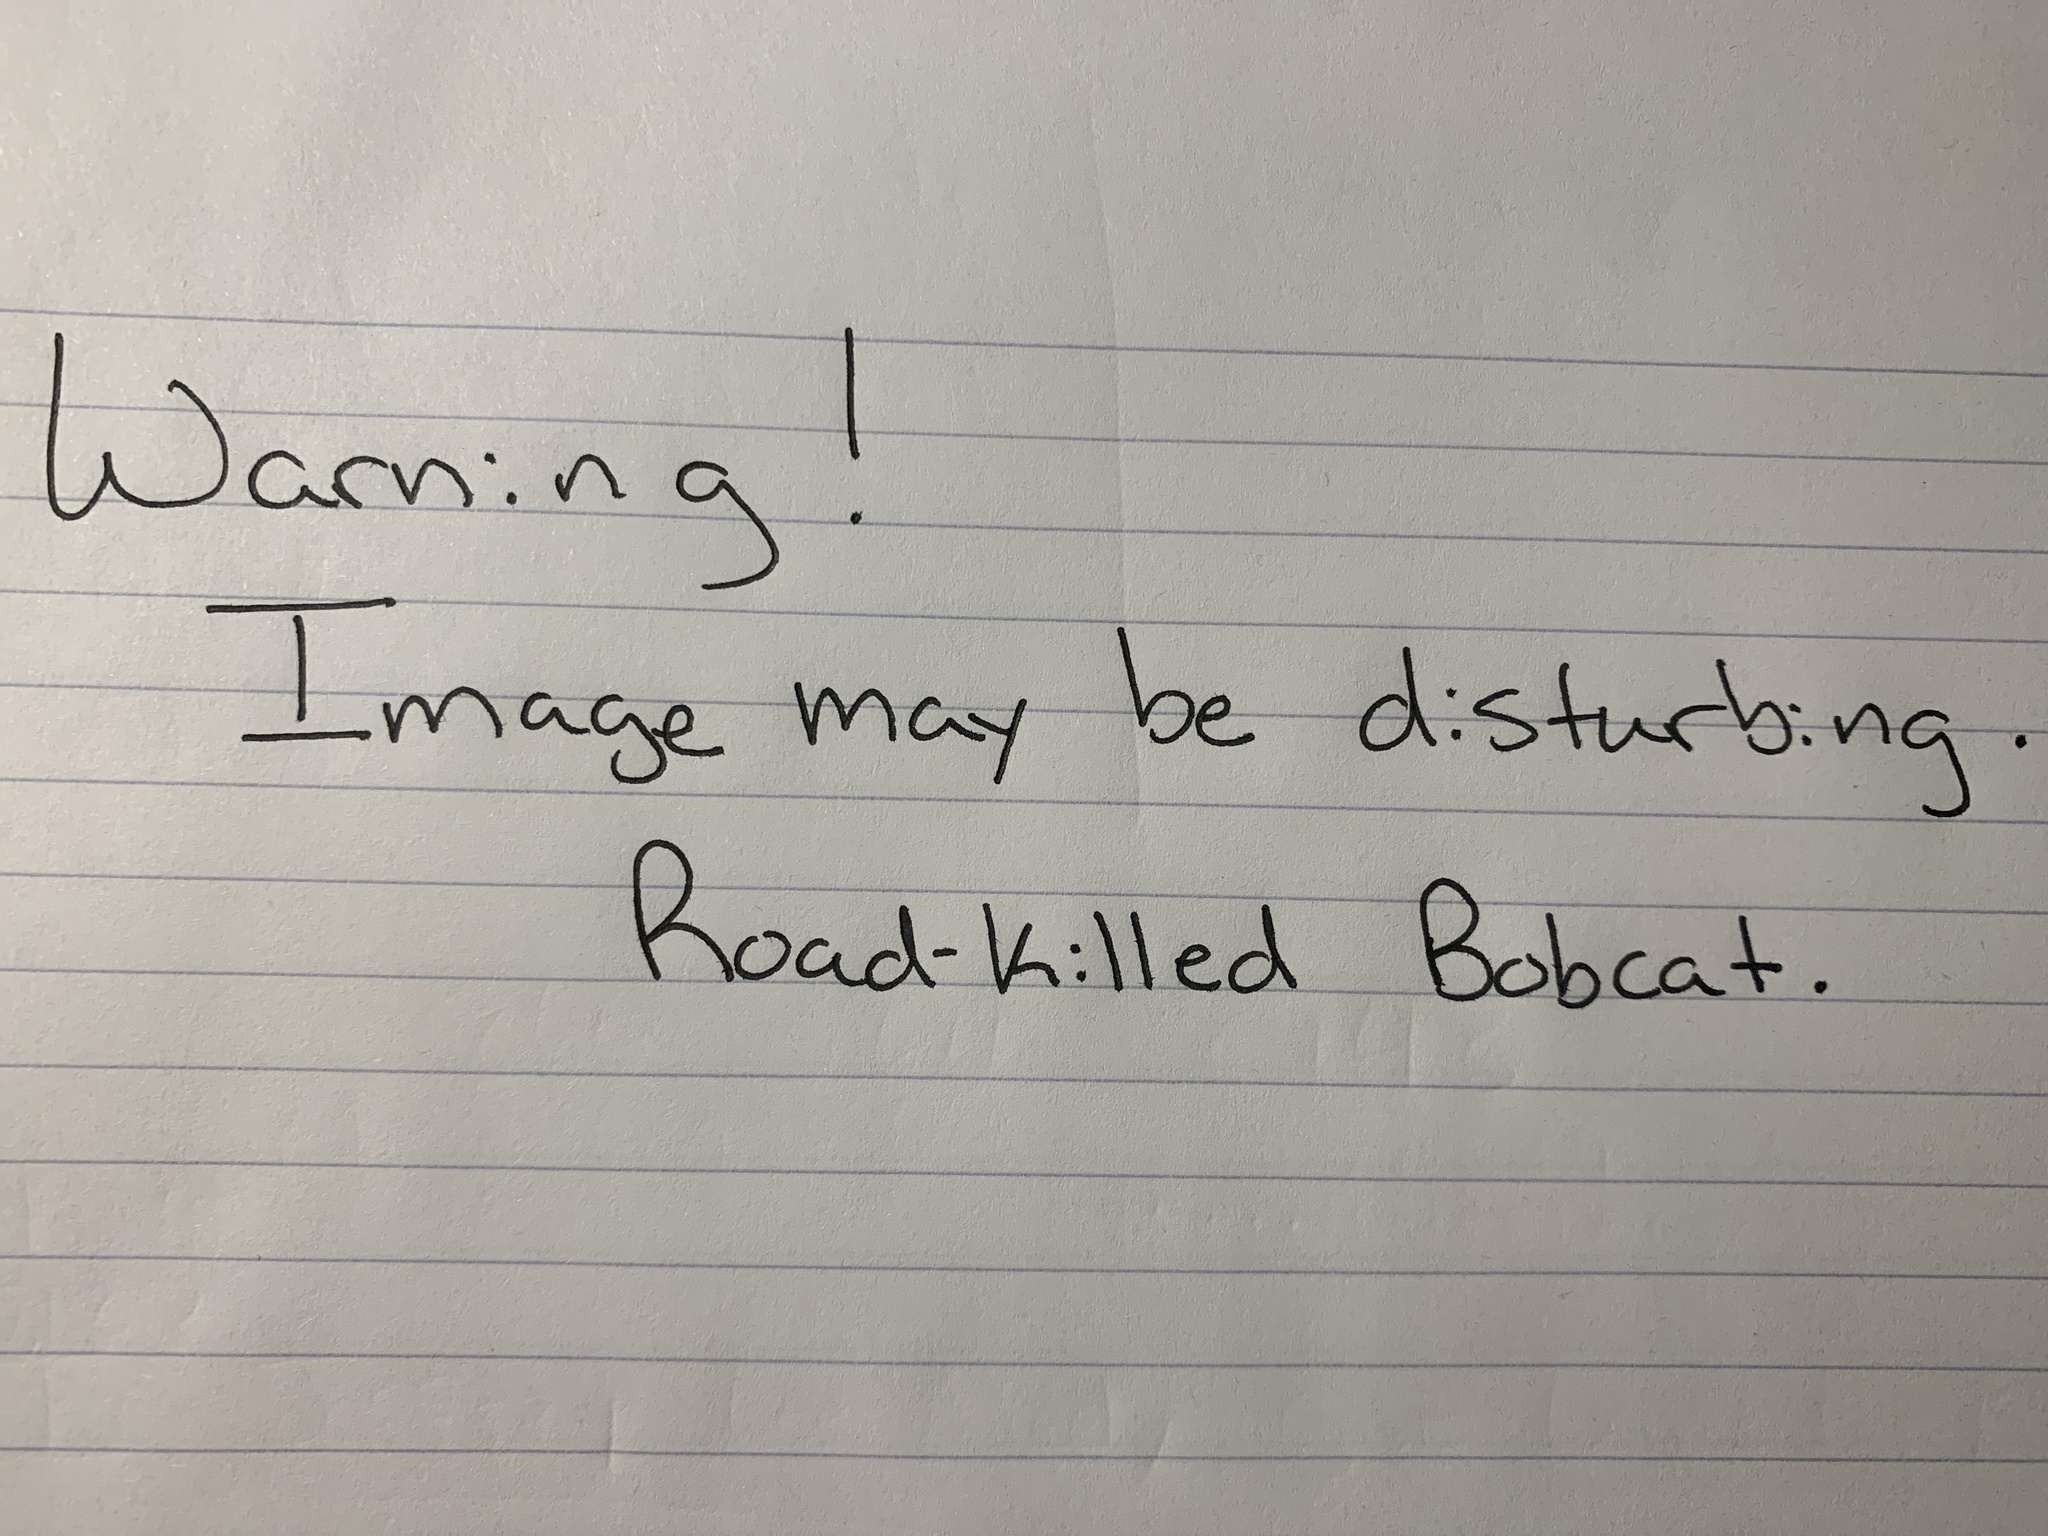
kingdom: Animalia
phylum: Chordata
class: Mammalia
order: Carnivora
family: Felidae
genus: Lynx
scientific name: Lynx rufus
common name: Bobcat
